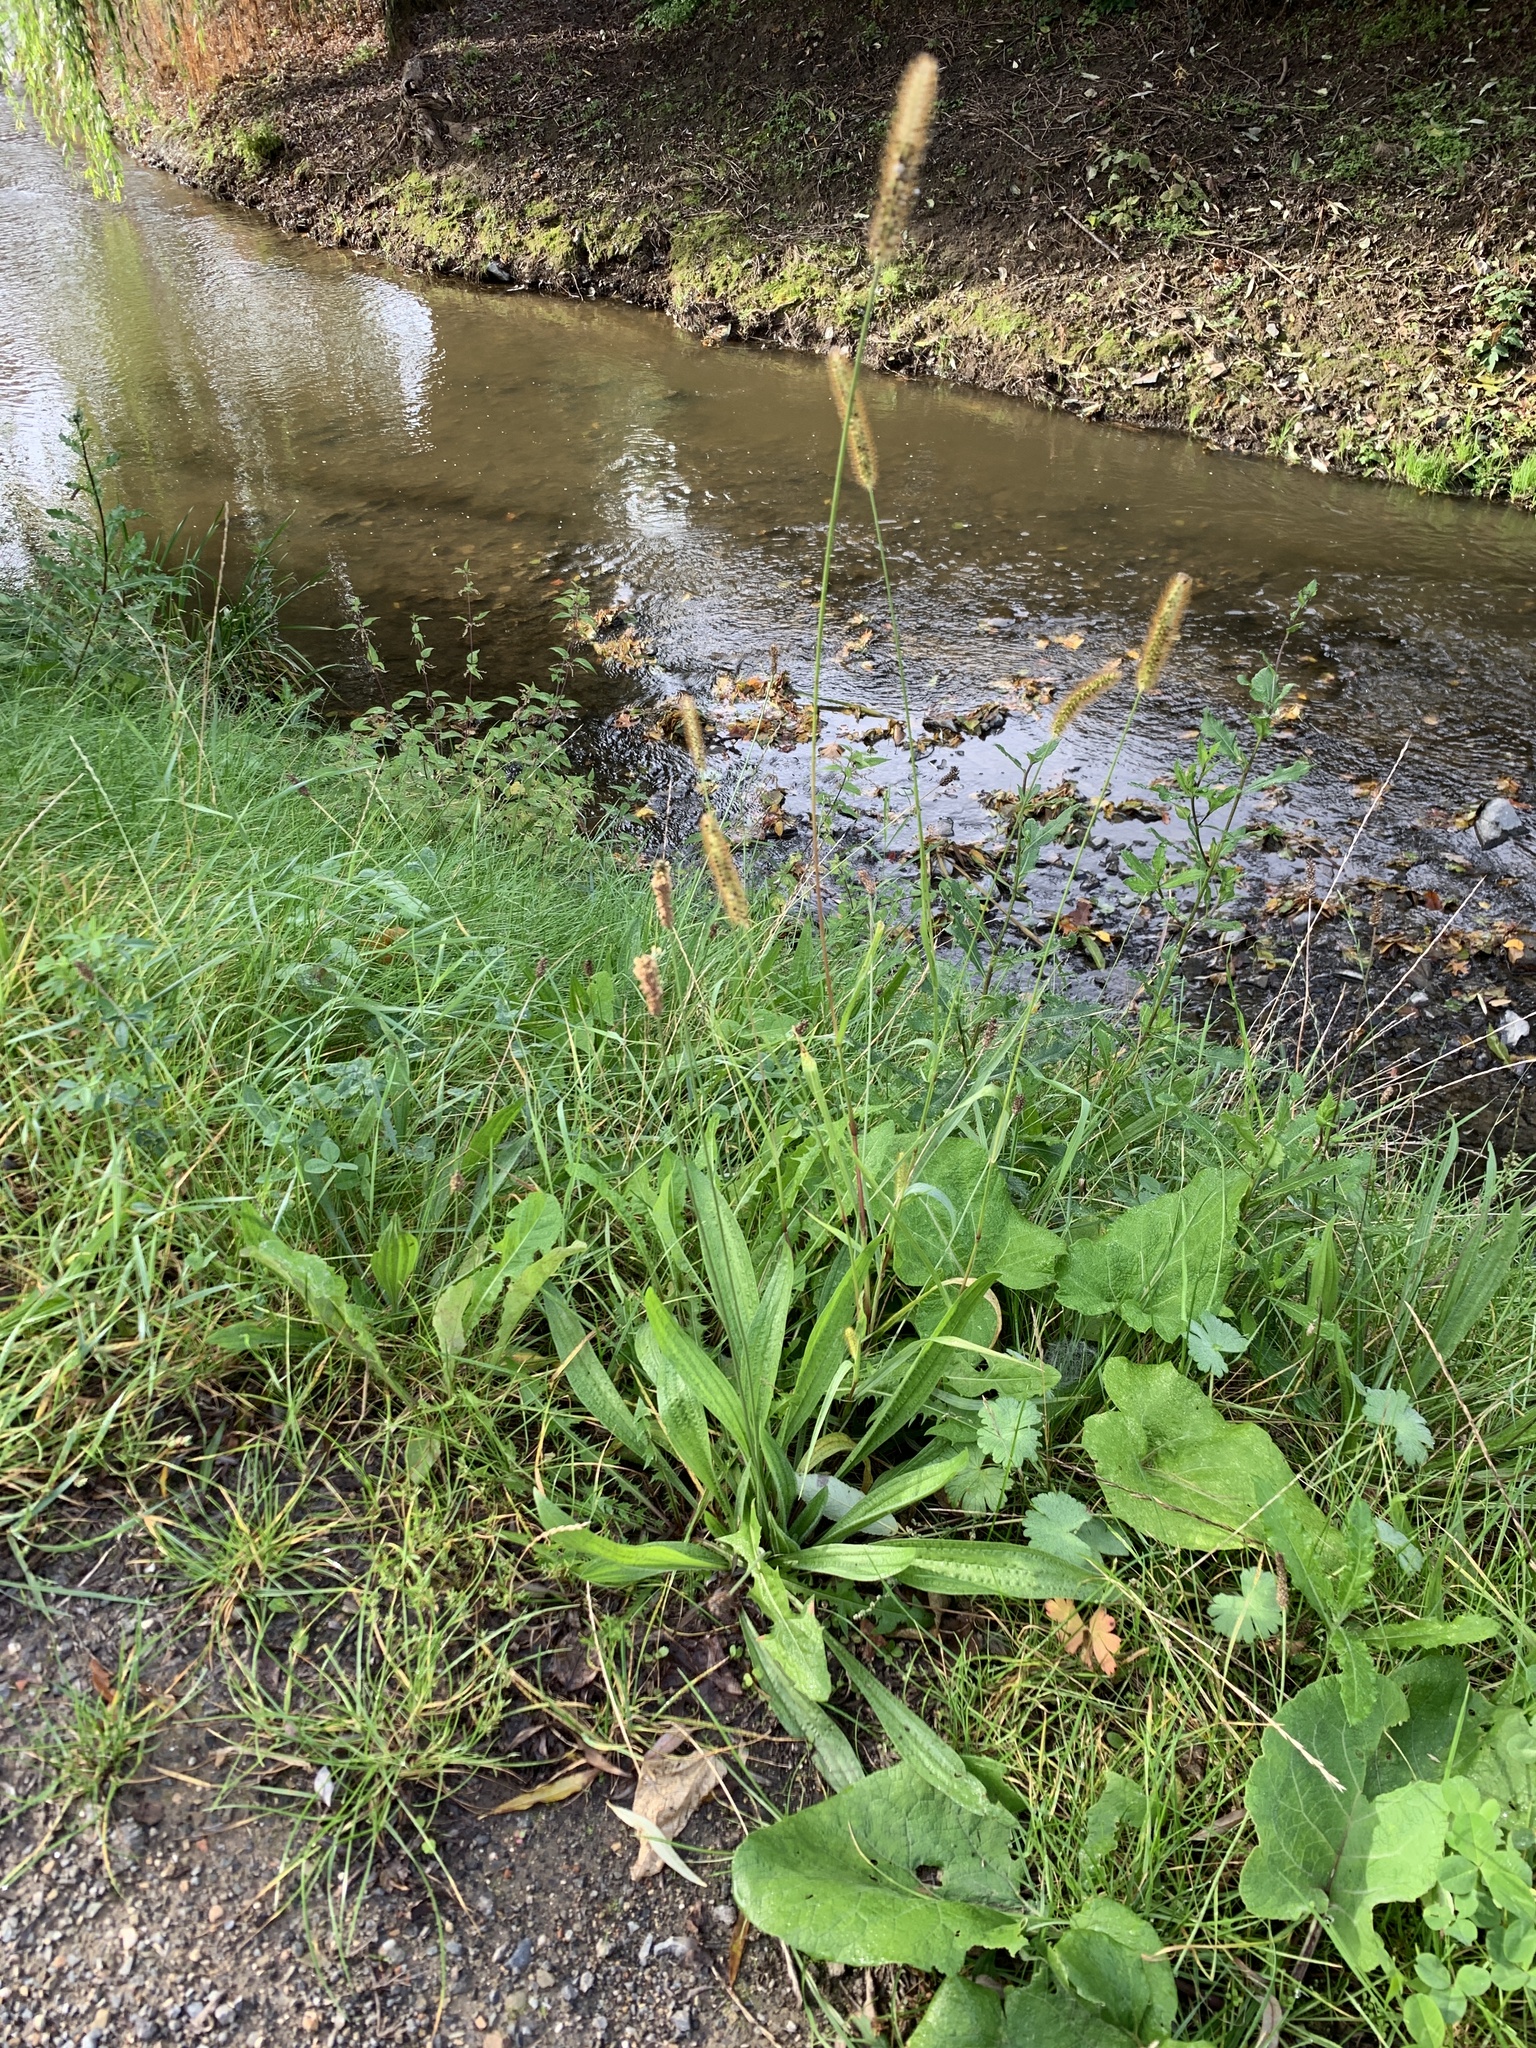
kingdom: Plantae
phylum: Tracheophyta
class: Liliopsida
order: Poales
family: Poaceae
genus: Setaria
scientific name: Setaria pumila
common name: Yellow bristle-grass
